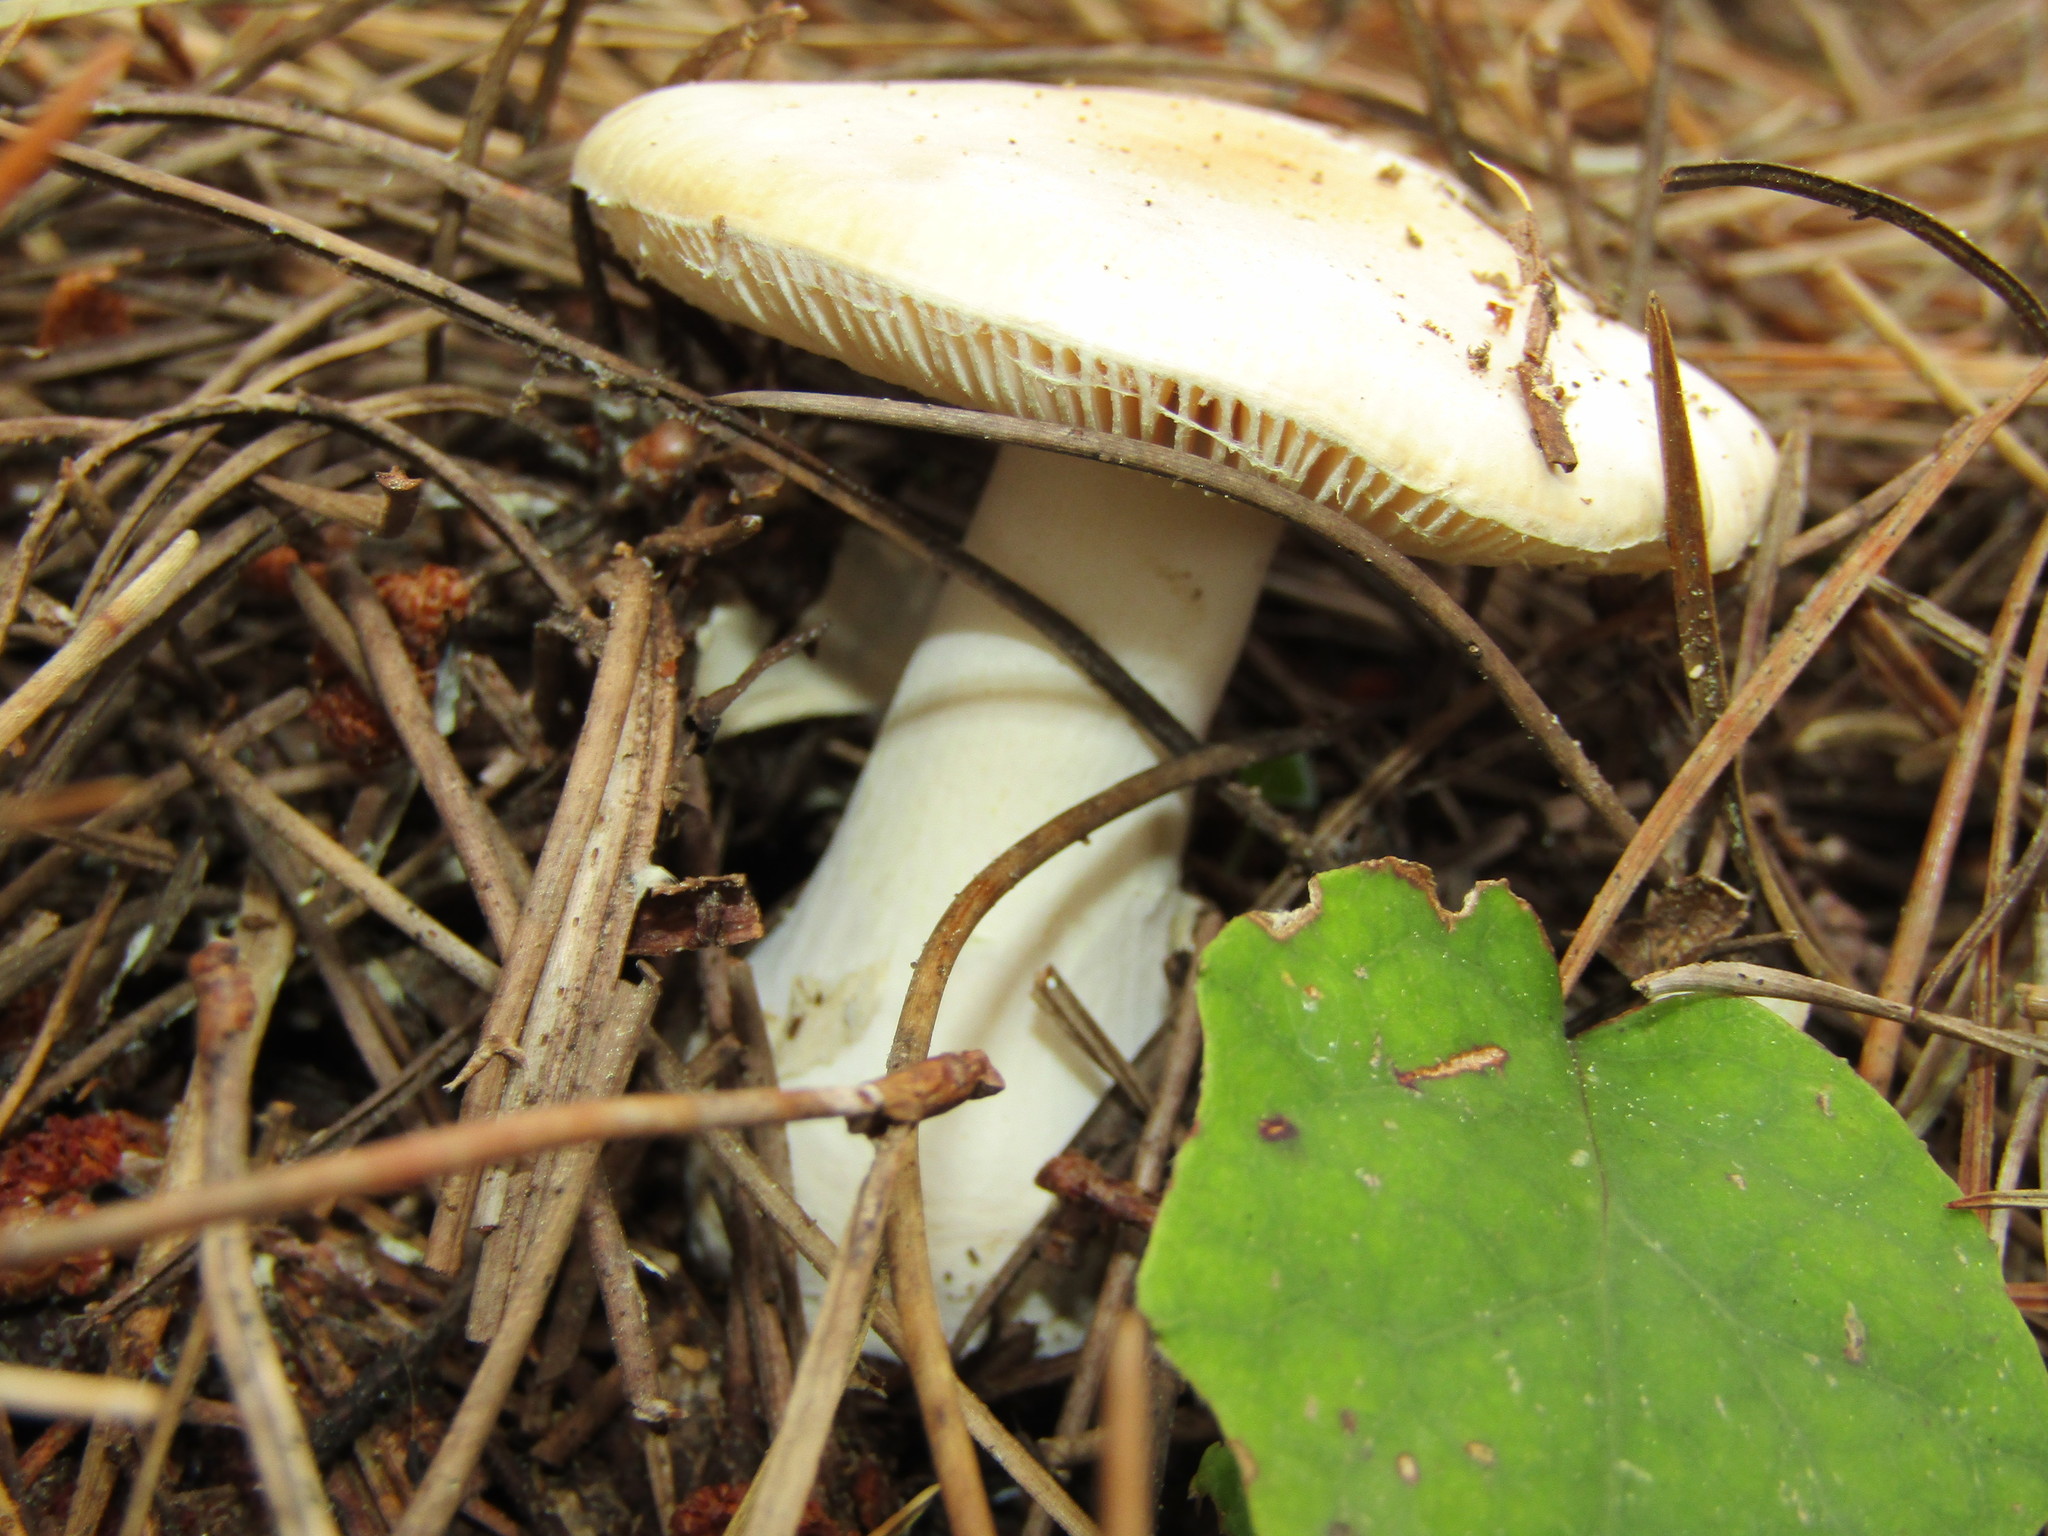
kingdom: Fungi
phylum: Basidiomycota
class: Agaricomycetes
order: Agaricales
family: Amanitaceae
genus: Amanita
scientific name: Amanita gemmata
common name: Jewelled amanita
